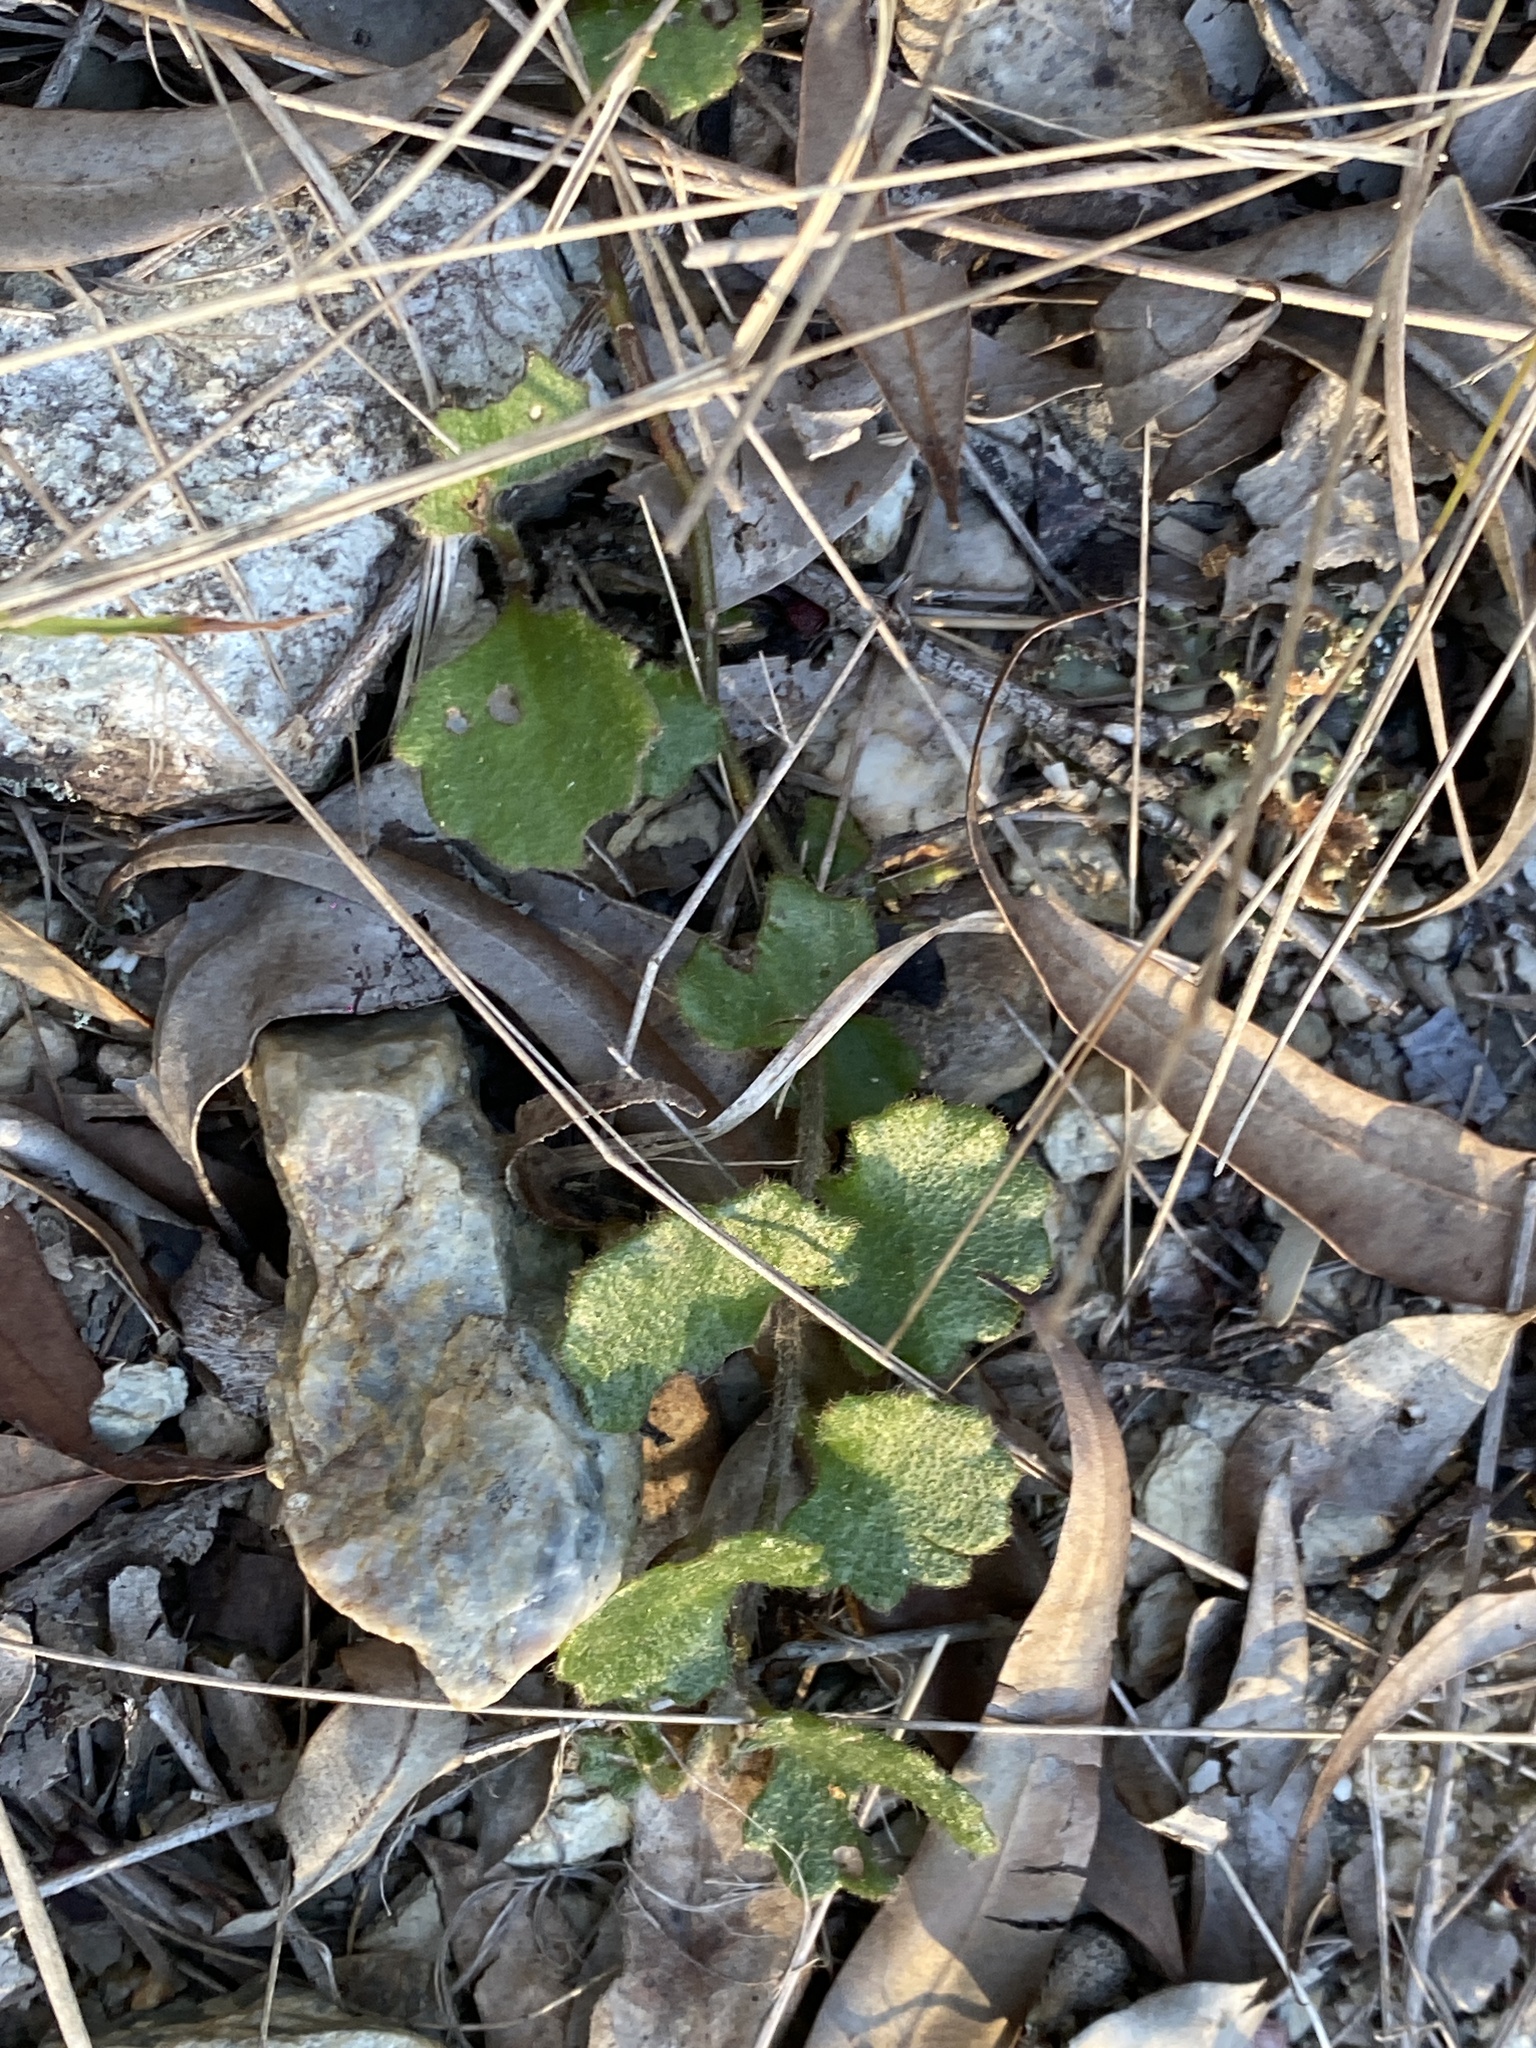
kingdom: Plantae
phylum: Tracheophyta
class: Magnoliopsida
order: Asterales
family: Goodeniaceae
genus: Goodenia
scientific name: Goodenia rotundifolia
